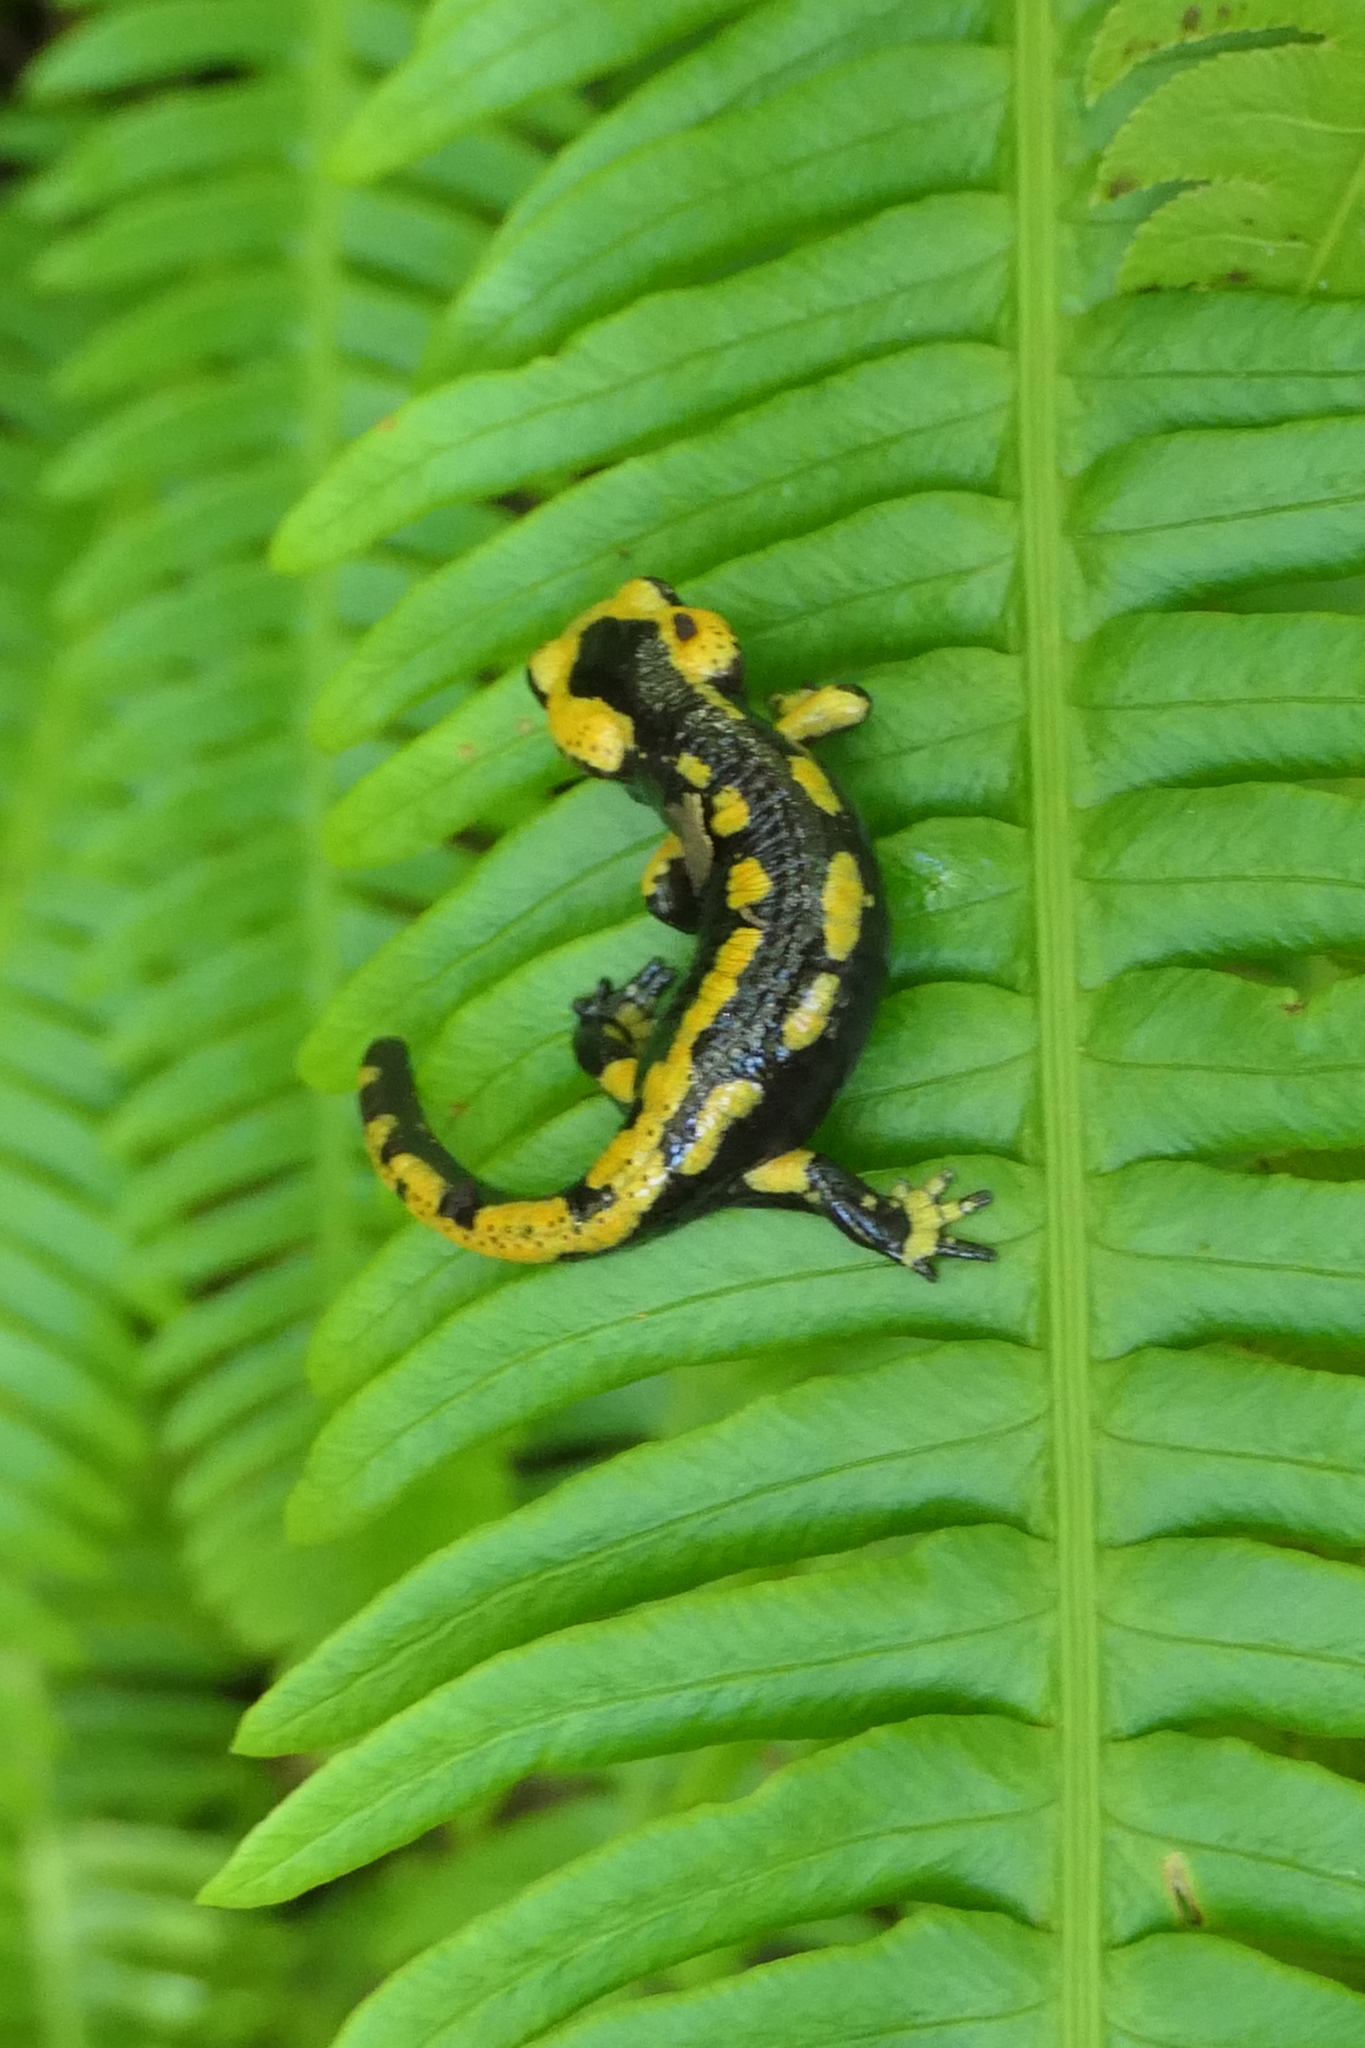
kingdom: Animalia
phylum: Chordata
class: Amphibia
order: Caudata
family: Salamandridae
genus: Salamandra
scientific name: Salamandra salamandra
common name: Fire salamander
